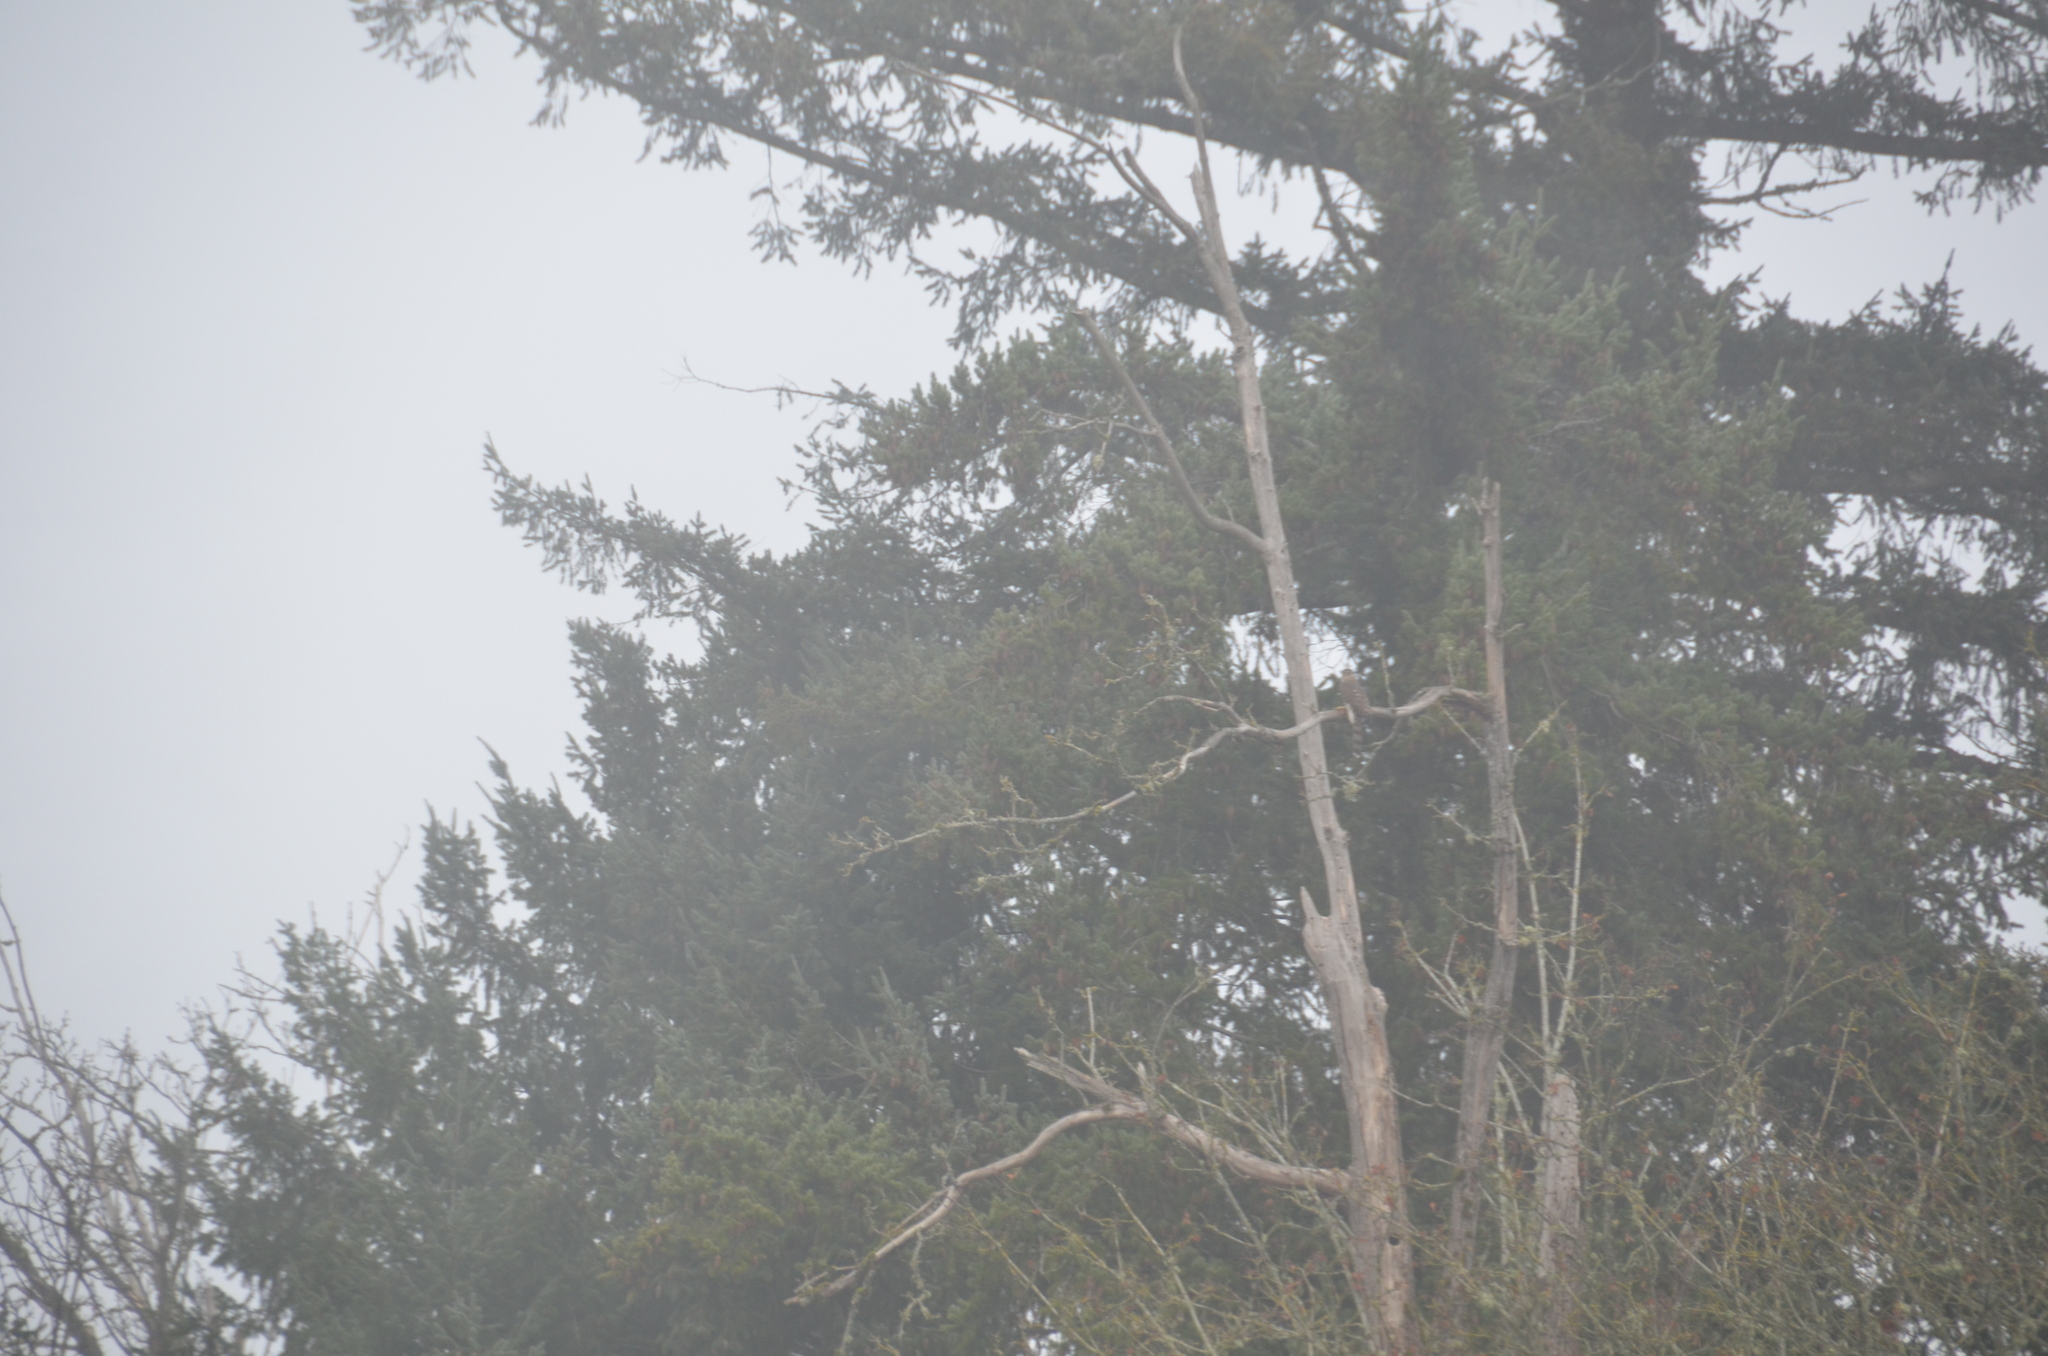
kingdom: Animalia
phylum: Chordata
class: Aves
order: Accipitriformes
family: Accipitridae
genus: Accipiter
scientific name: Accipiter cooperii
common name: Cooper's hawk
